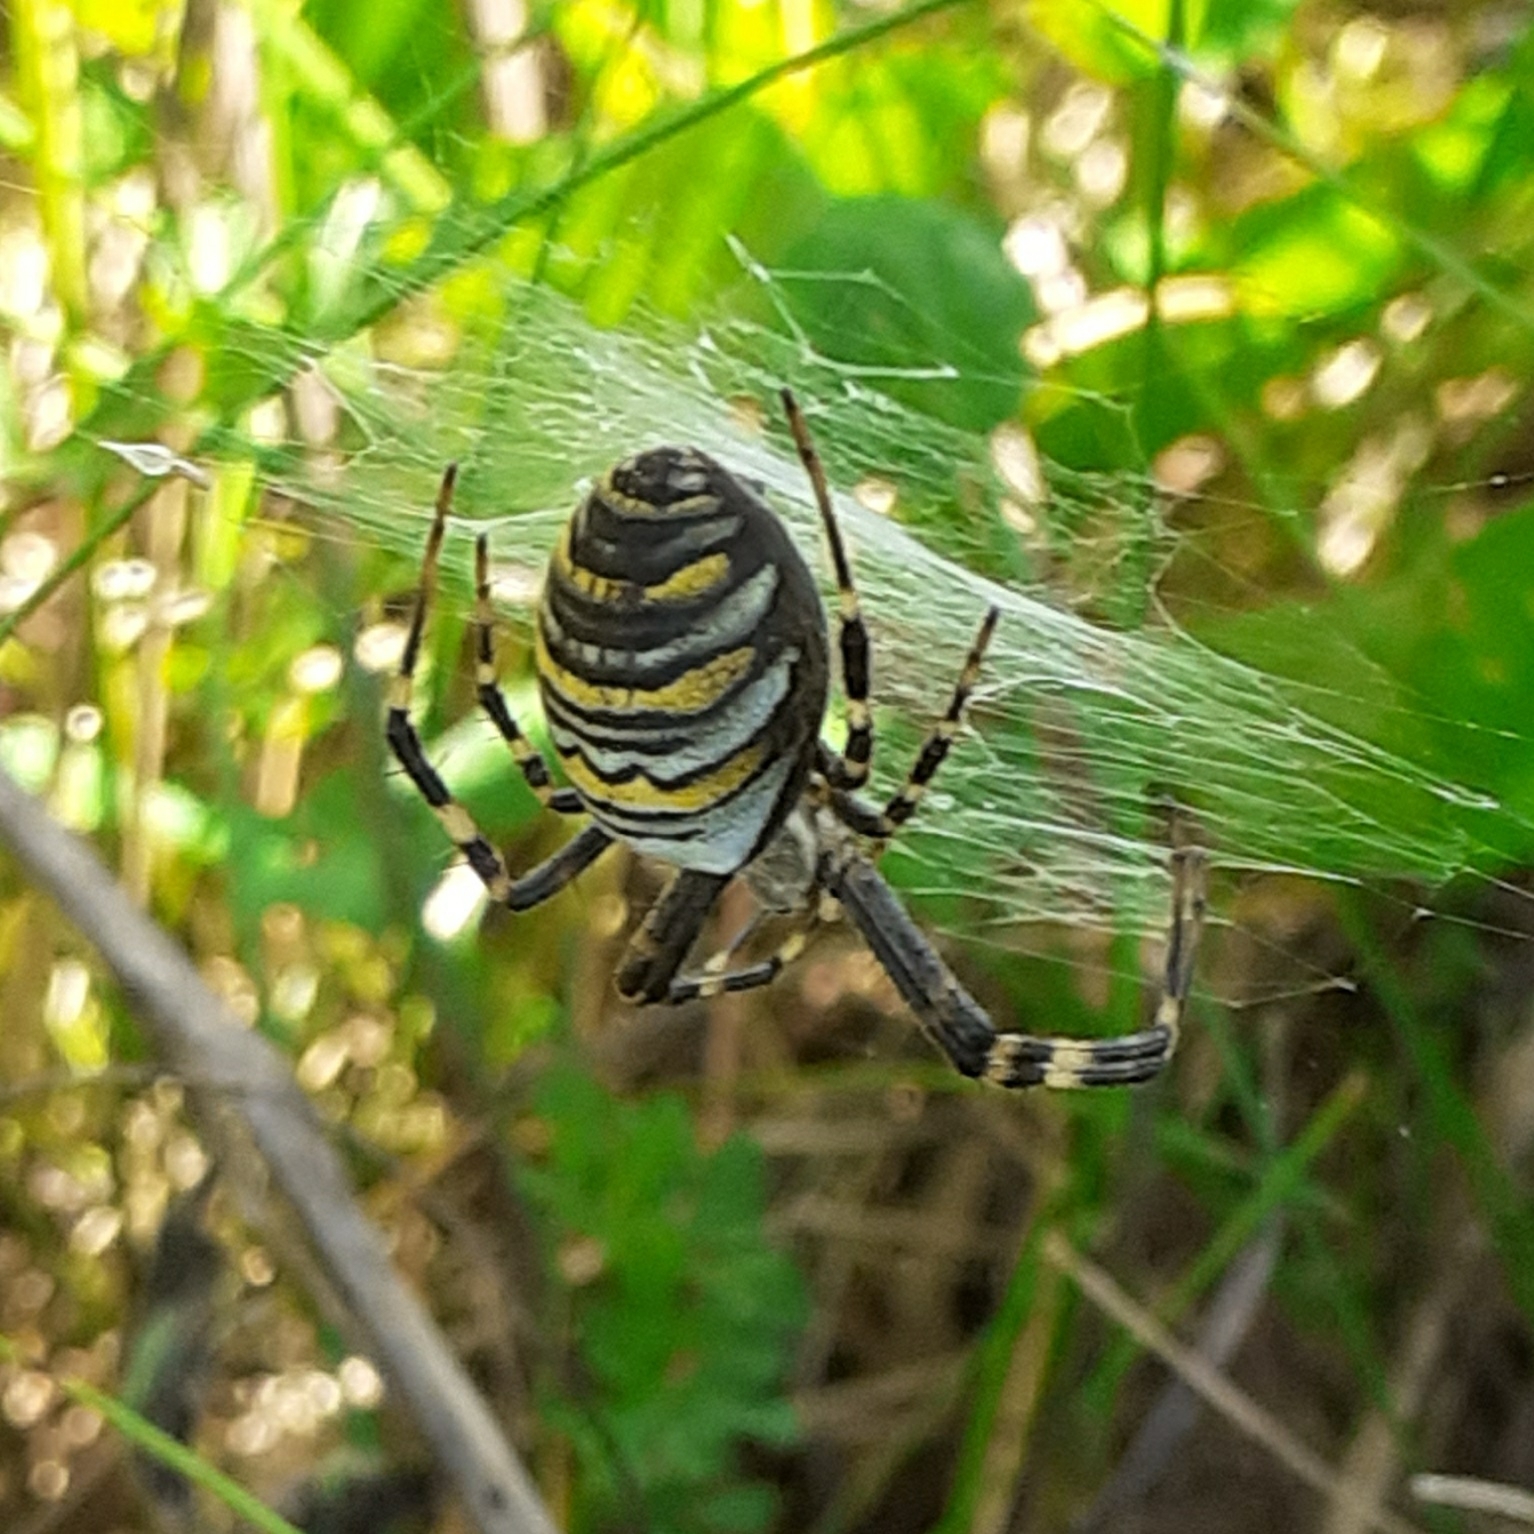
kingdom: Animalia
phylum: Arthropoda
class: Arachnida
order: Araneae
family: Araneidae
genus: Argiope
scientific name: Argiope bruennichi
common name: Wasp spider
